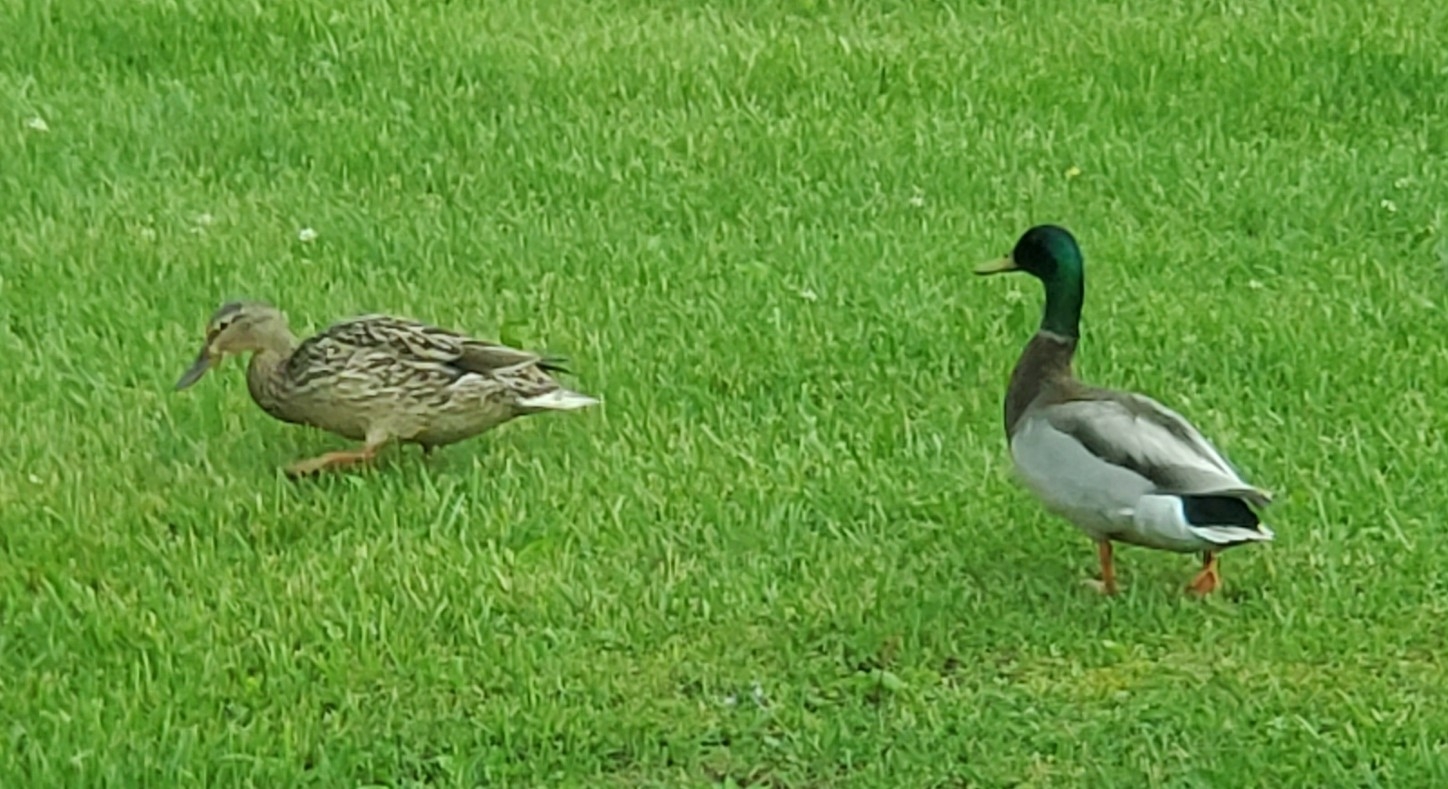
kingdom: Animalia
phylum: Chordata
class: Aves
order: Anseriformes
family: Anatidae
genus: Anas
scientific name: Anas platyrhynchos
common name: Mallard
